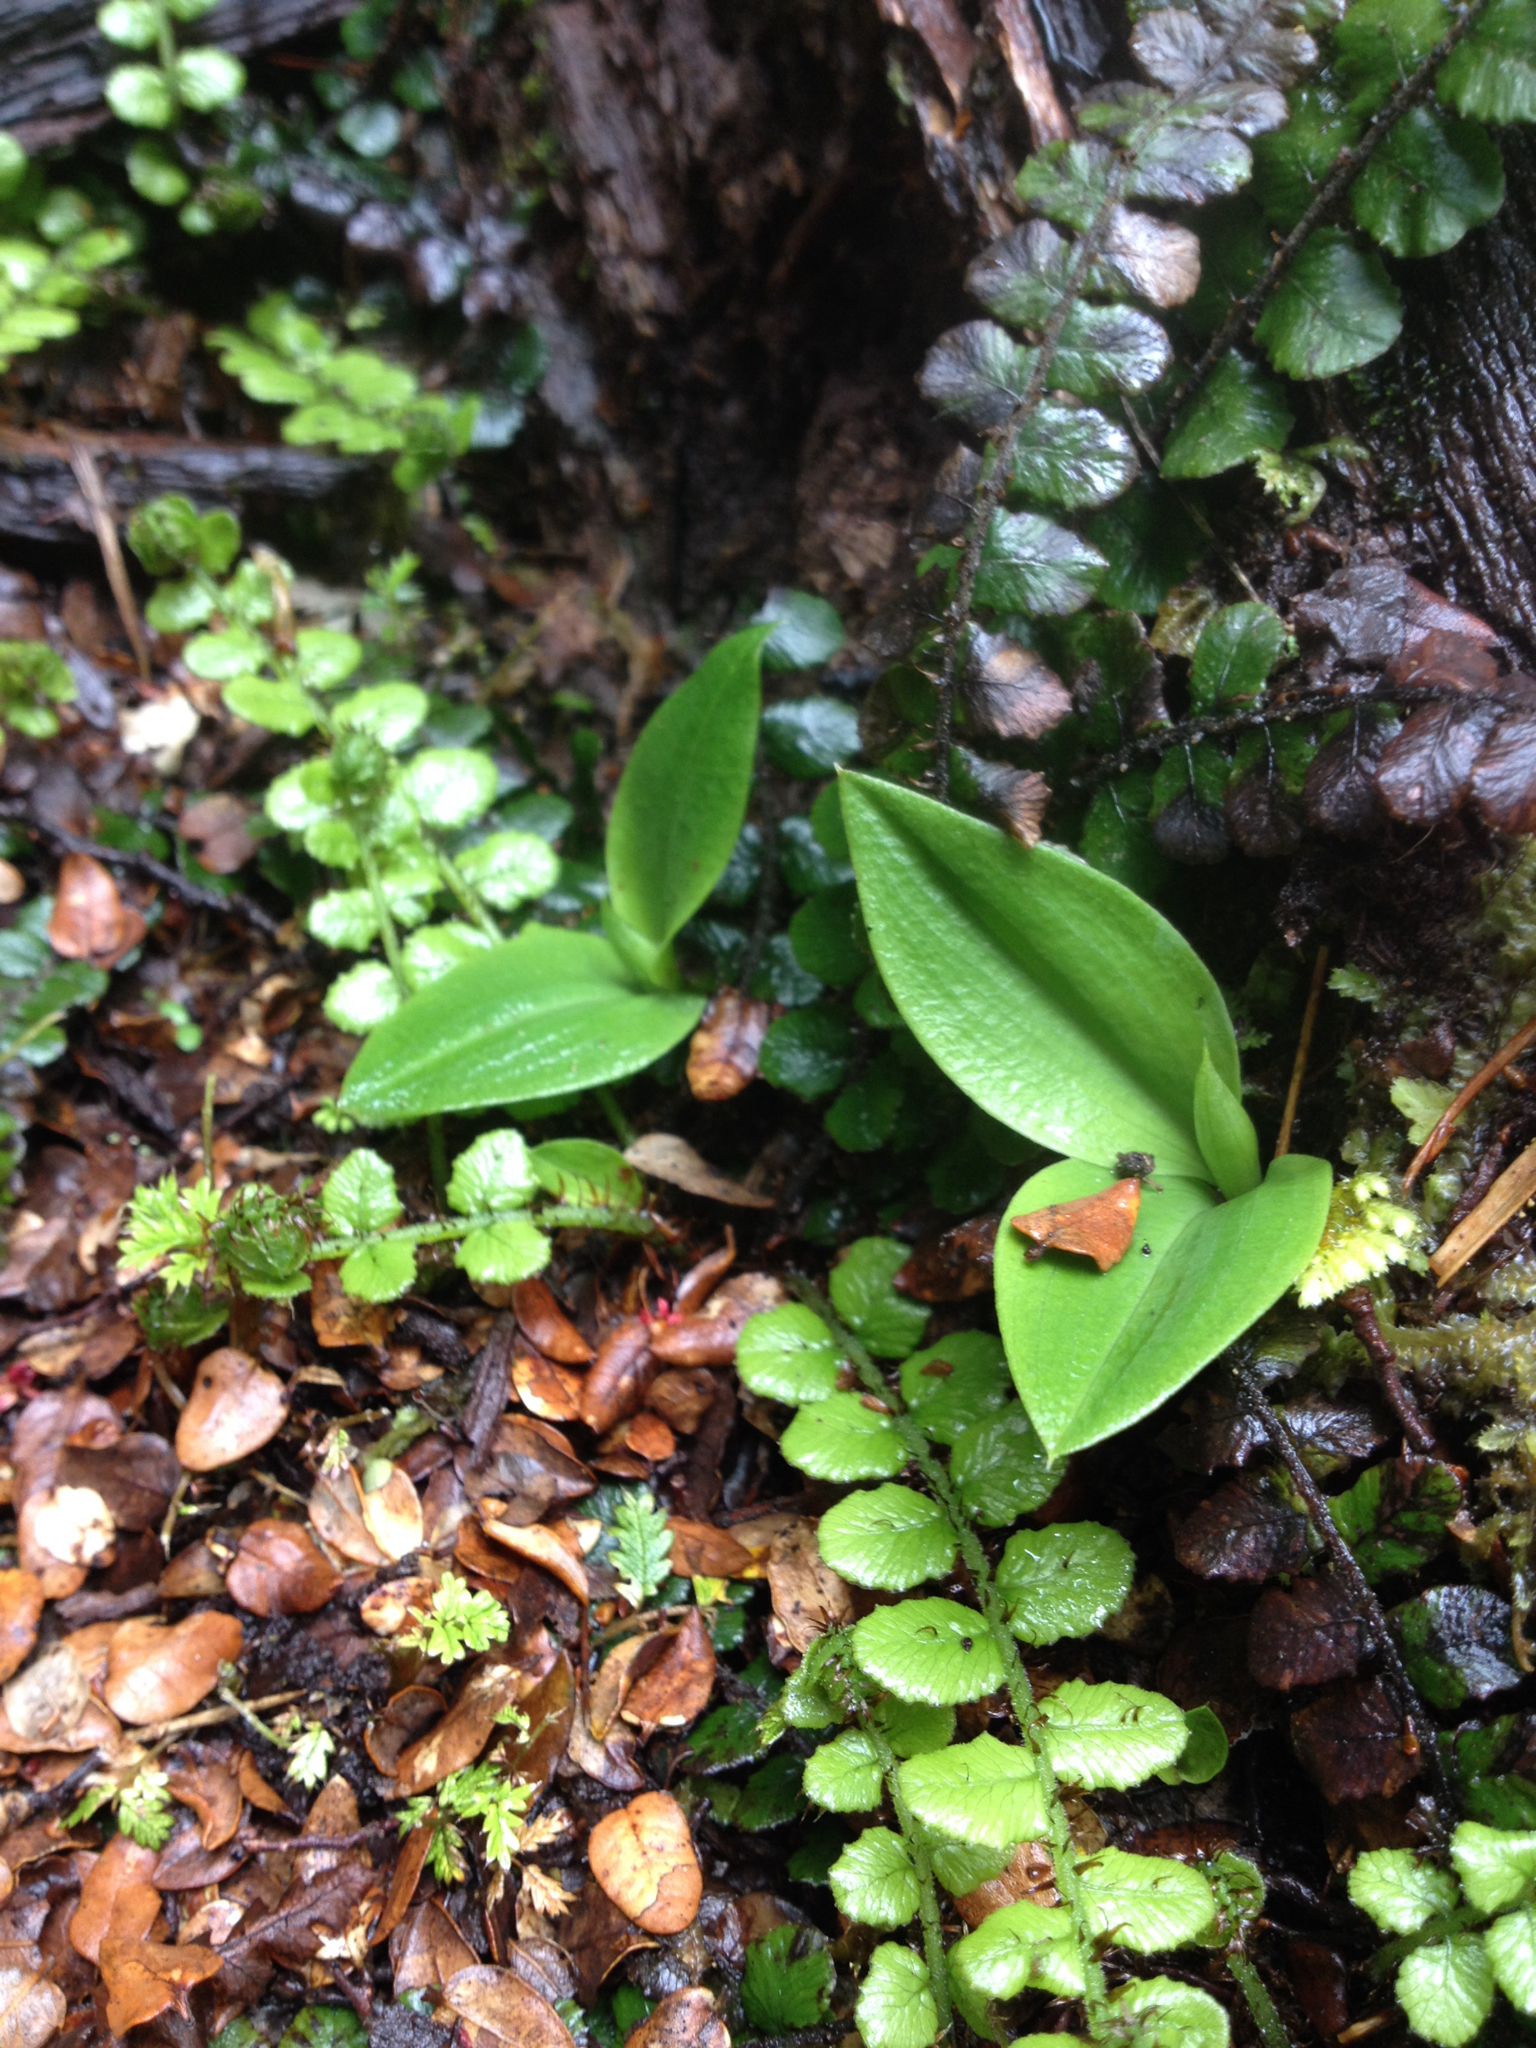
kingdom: Plantae
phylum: Tracheophyta
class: Liliopsida
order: Asparagales
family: Orchidaceae
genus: Chiloglottis
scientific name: Chiloglottis cornuta
